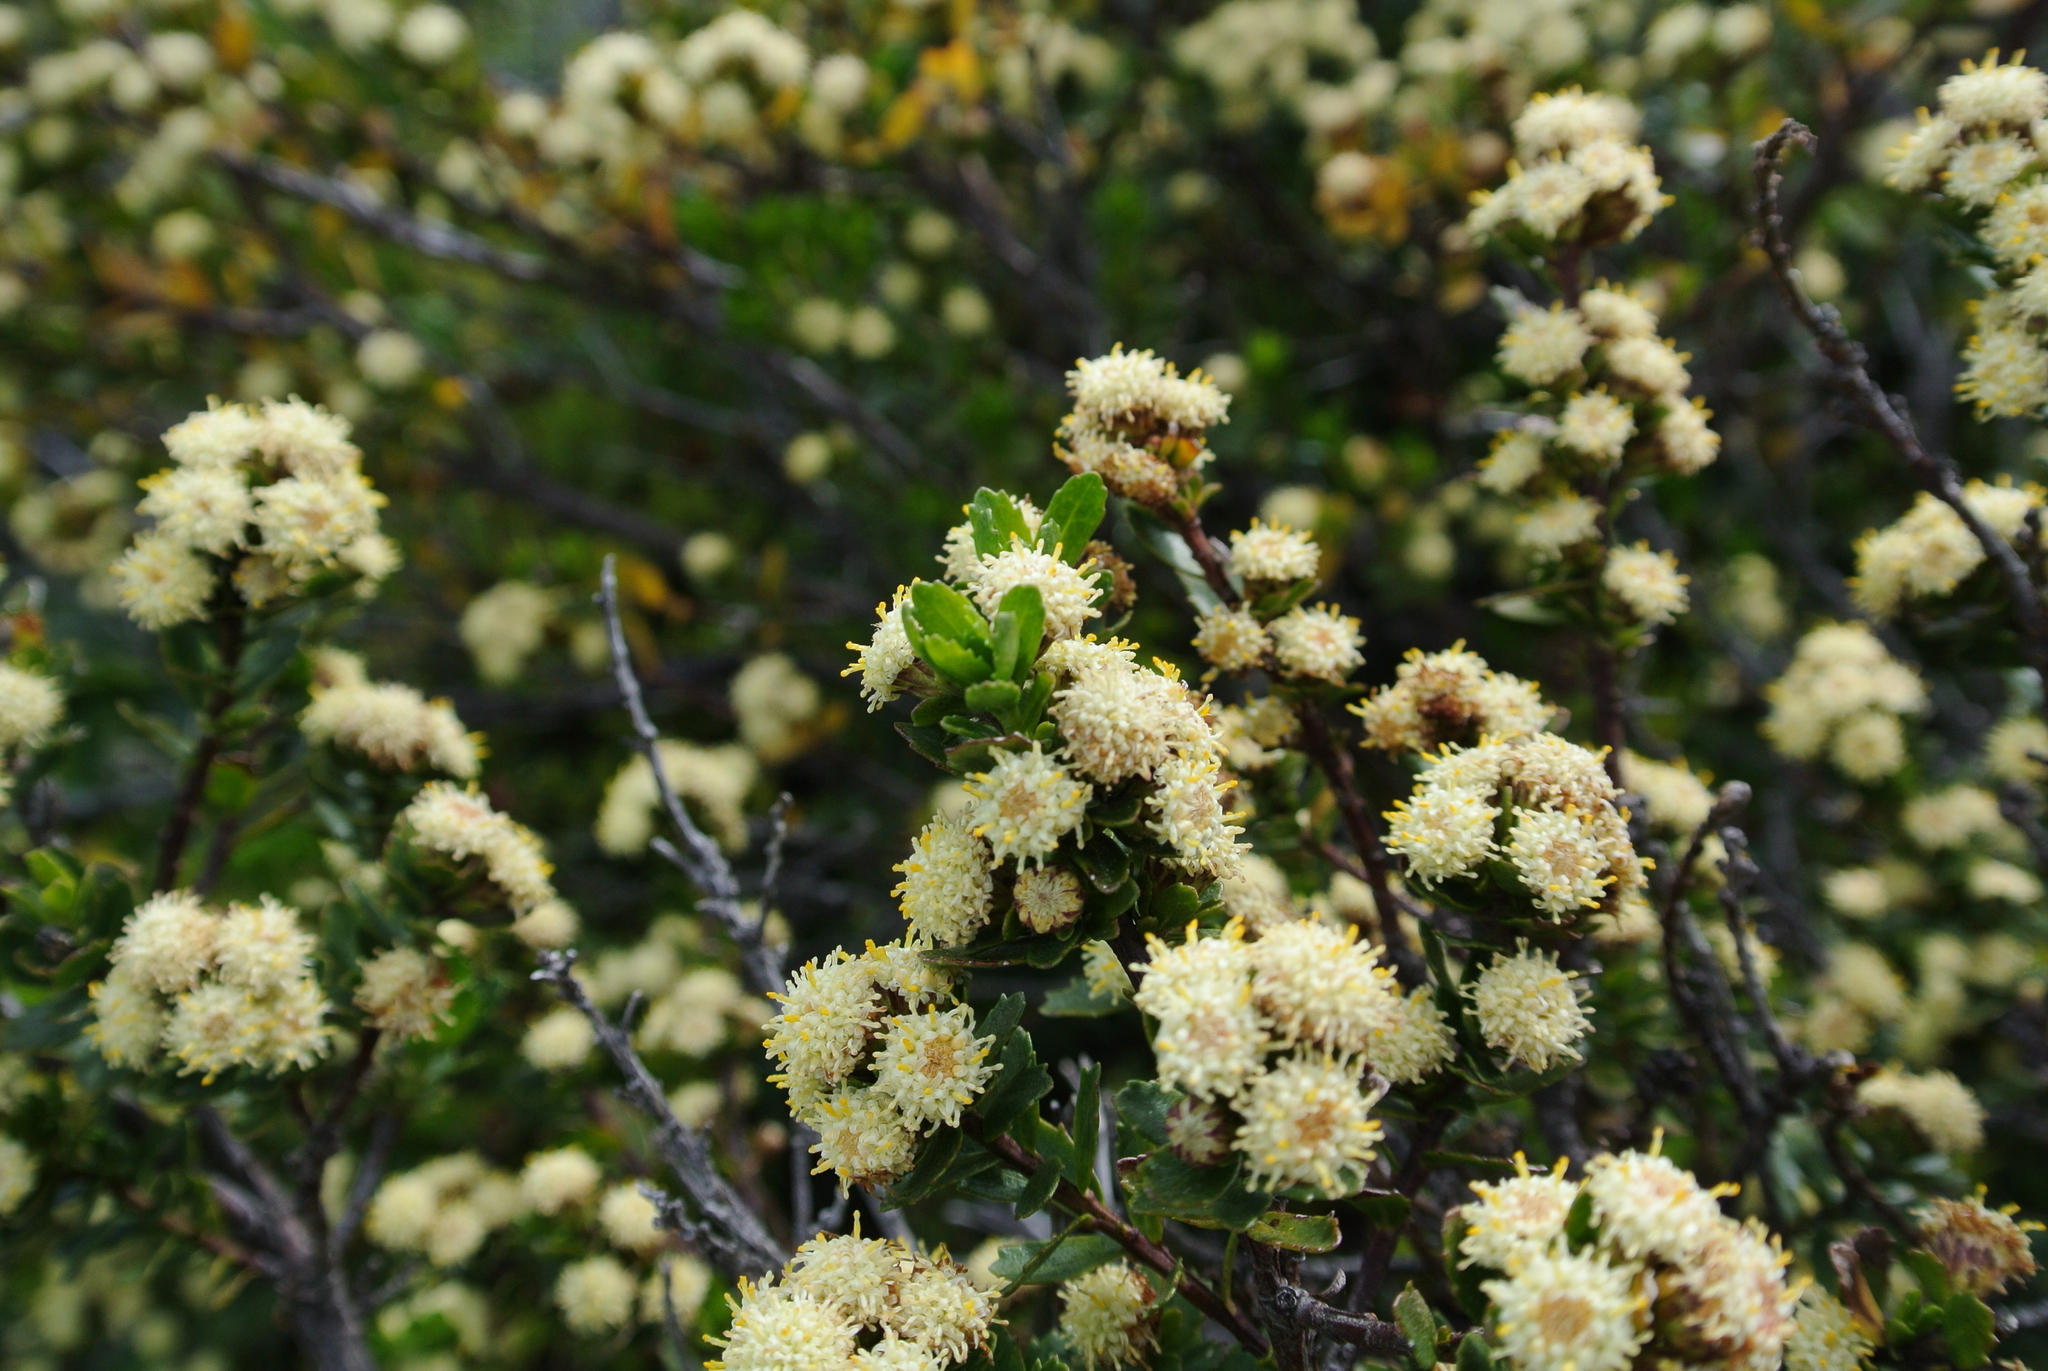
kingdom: Plantae
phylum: Tracheophyta
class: Magnoliopsida
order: Asterales
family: Asteraceae
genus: Baccharis
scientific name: Baccharis patagonica
